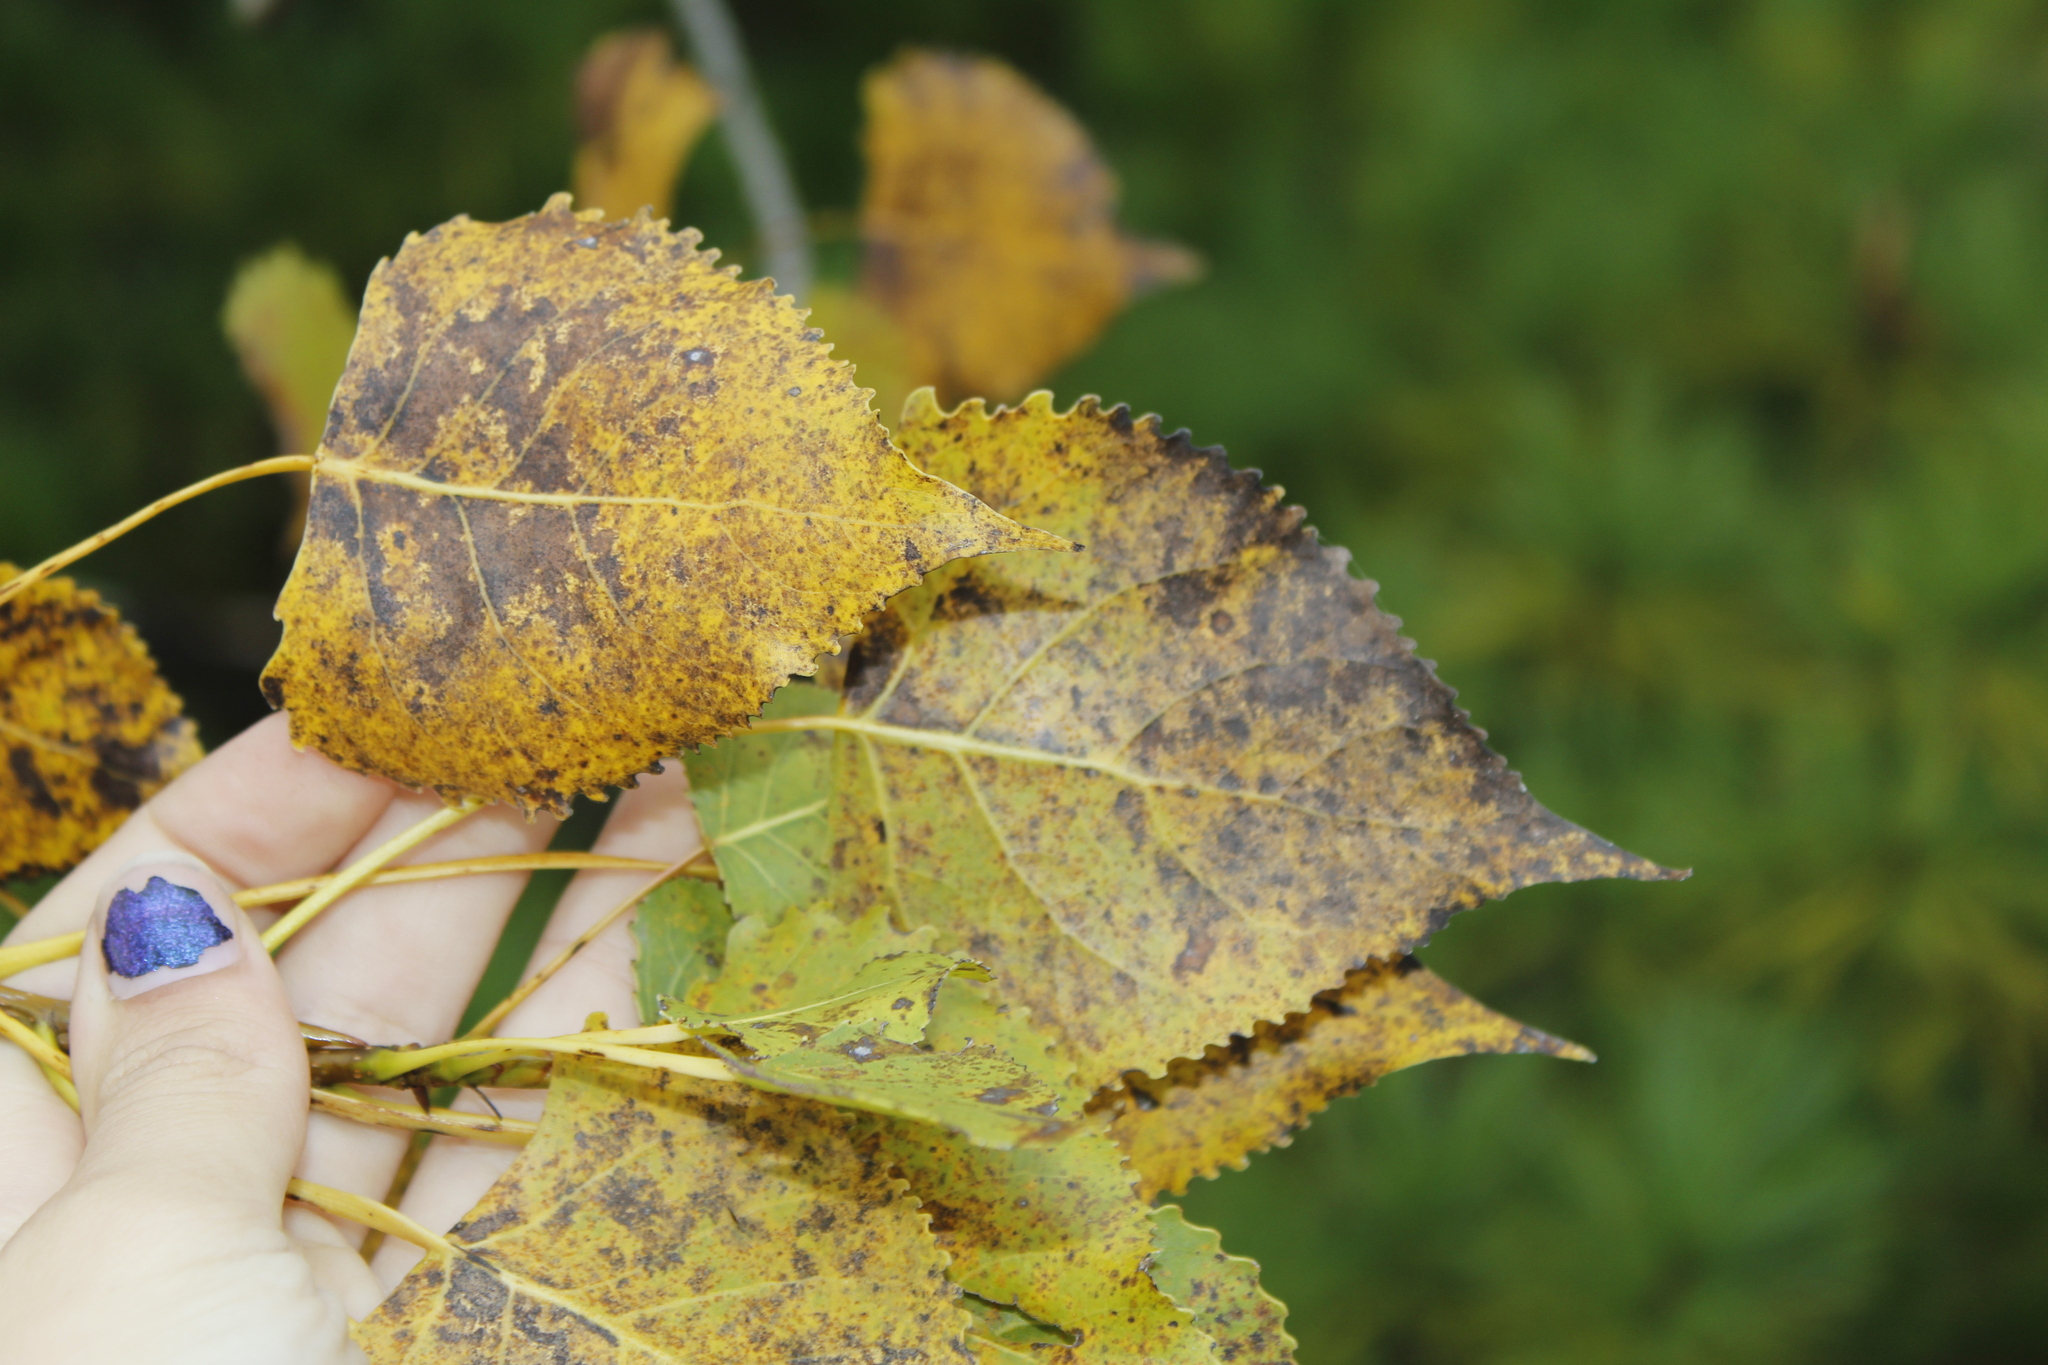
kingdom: Plantae
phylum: Tracheophyta
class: Magnoliopsida
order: Malpighiales
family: Salicaceae
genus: Populus
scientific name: Populus deltoides
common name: Eastern cottonwood
